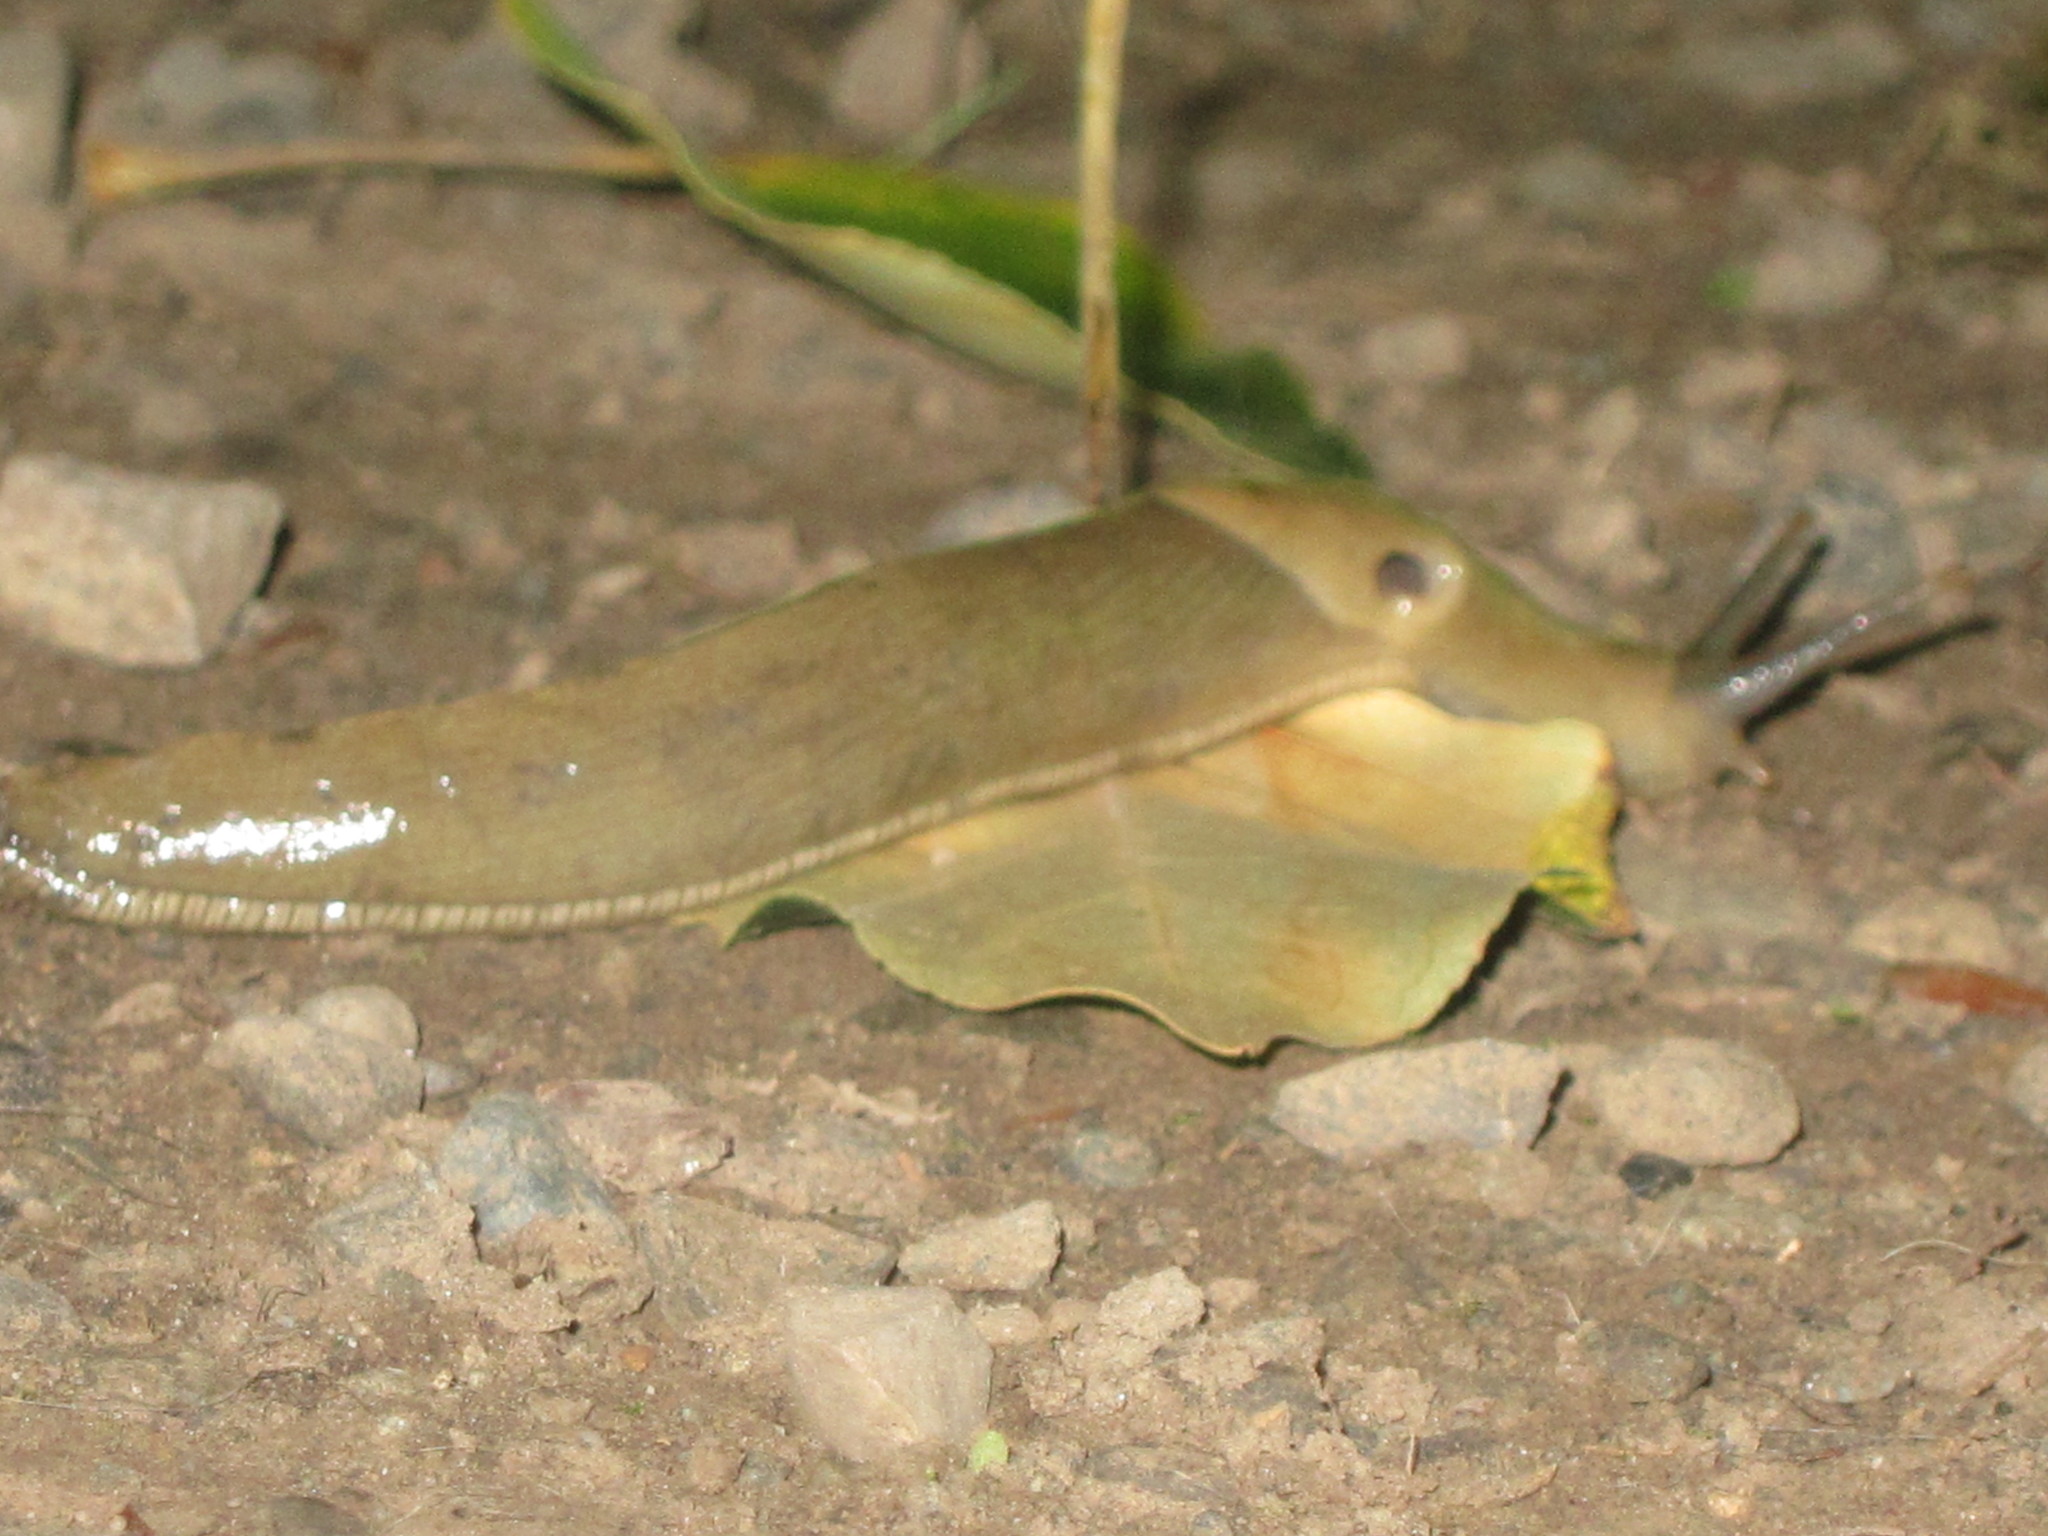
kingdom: Animalia
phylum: Mollusca
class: Gastropoda
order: Stylommatophora
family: Ariolimacidae
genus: Ariolimax
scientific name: Ariolimax columbianus
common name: Pacific banana slug
